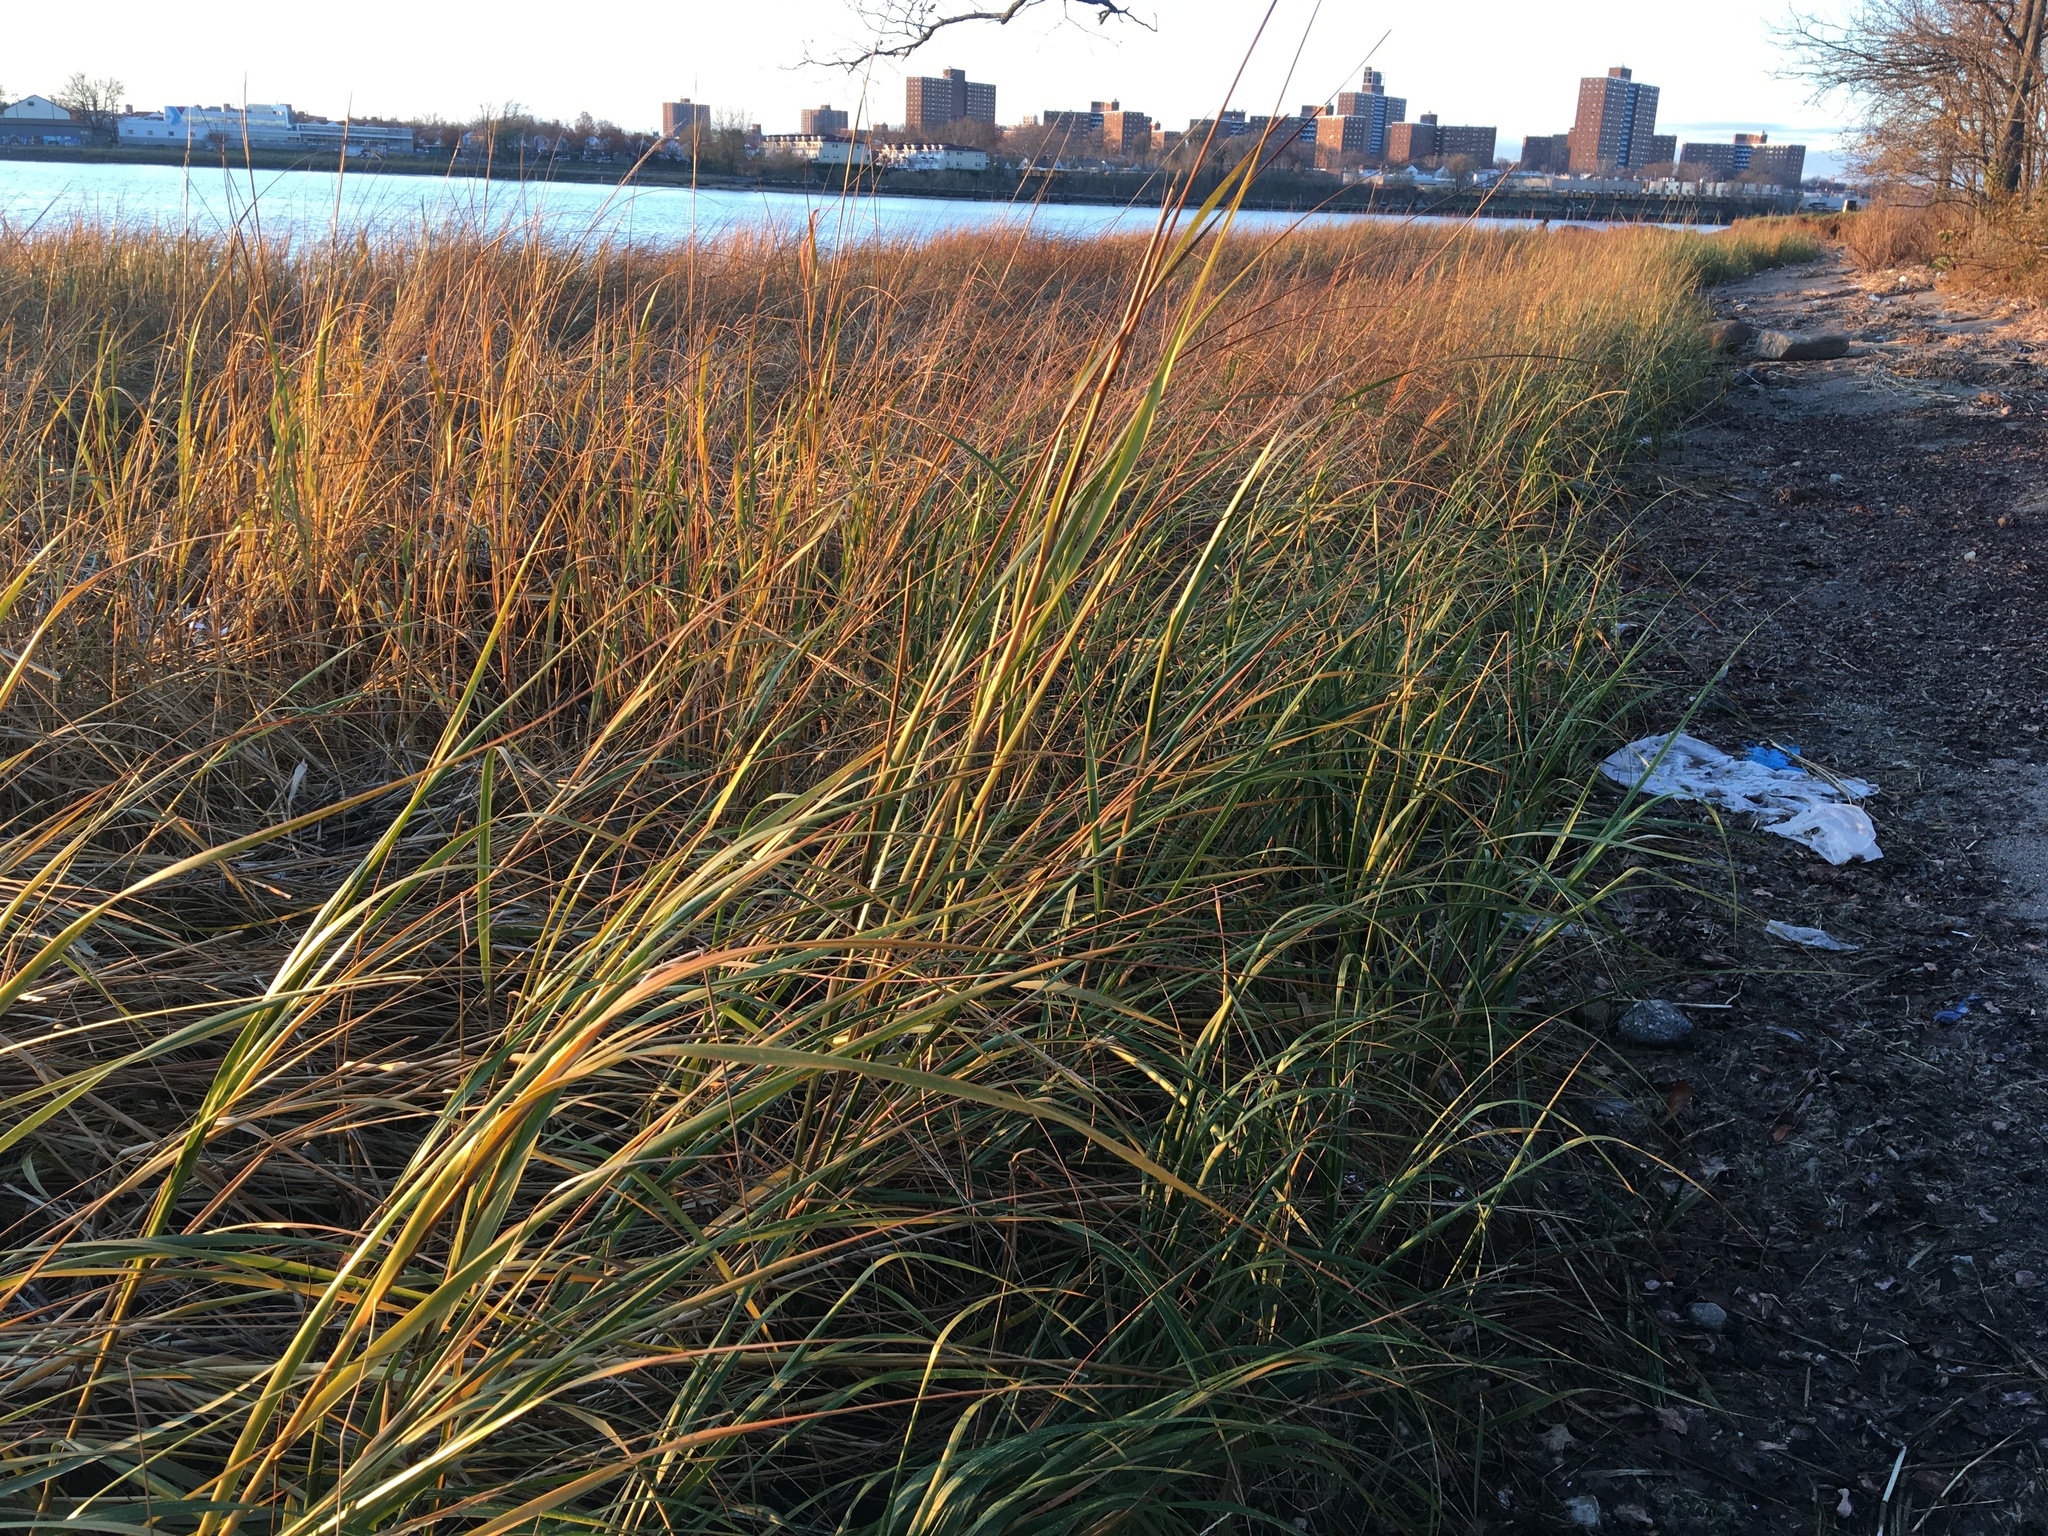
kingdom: Plantae
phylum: Tracheophyta
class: Liliopsida
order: Poales
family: Poaceae
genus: Sporobolus
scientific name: Sporobolus alterniflorus
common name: Atlantic cordgrass
